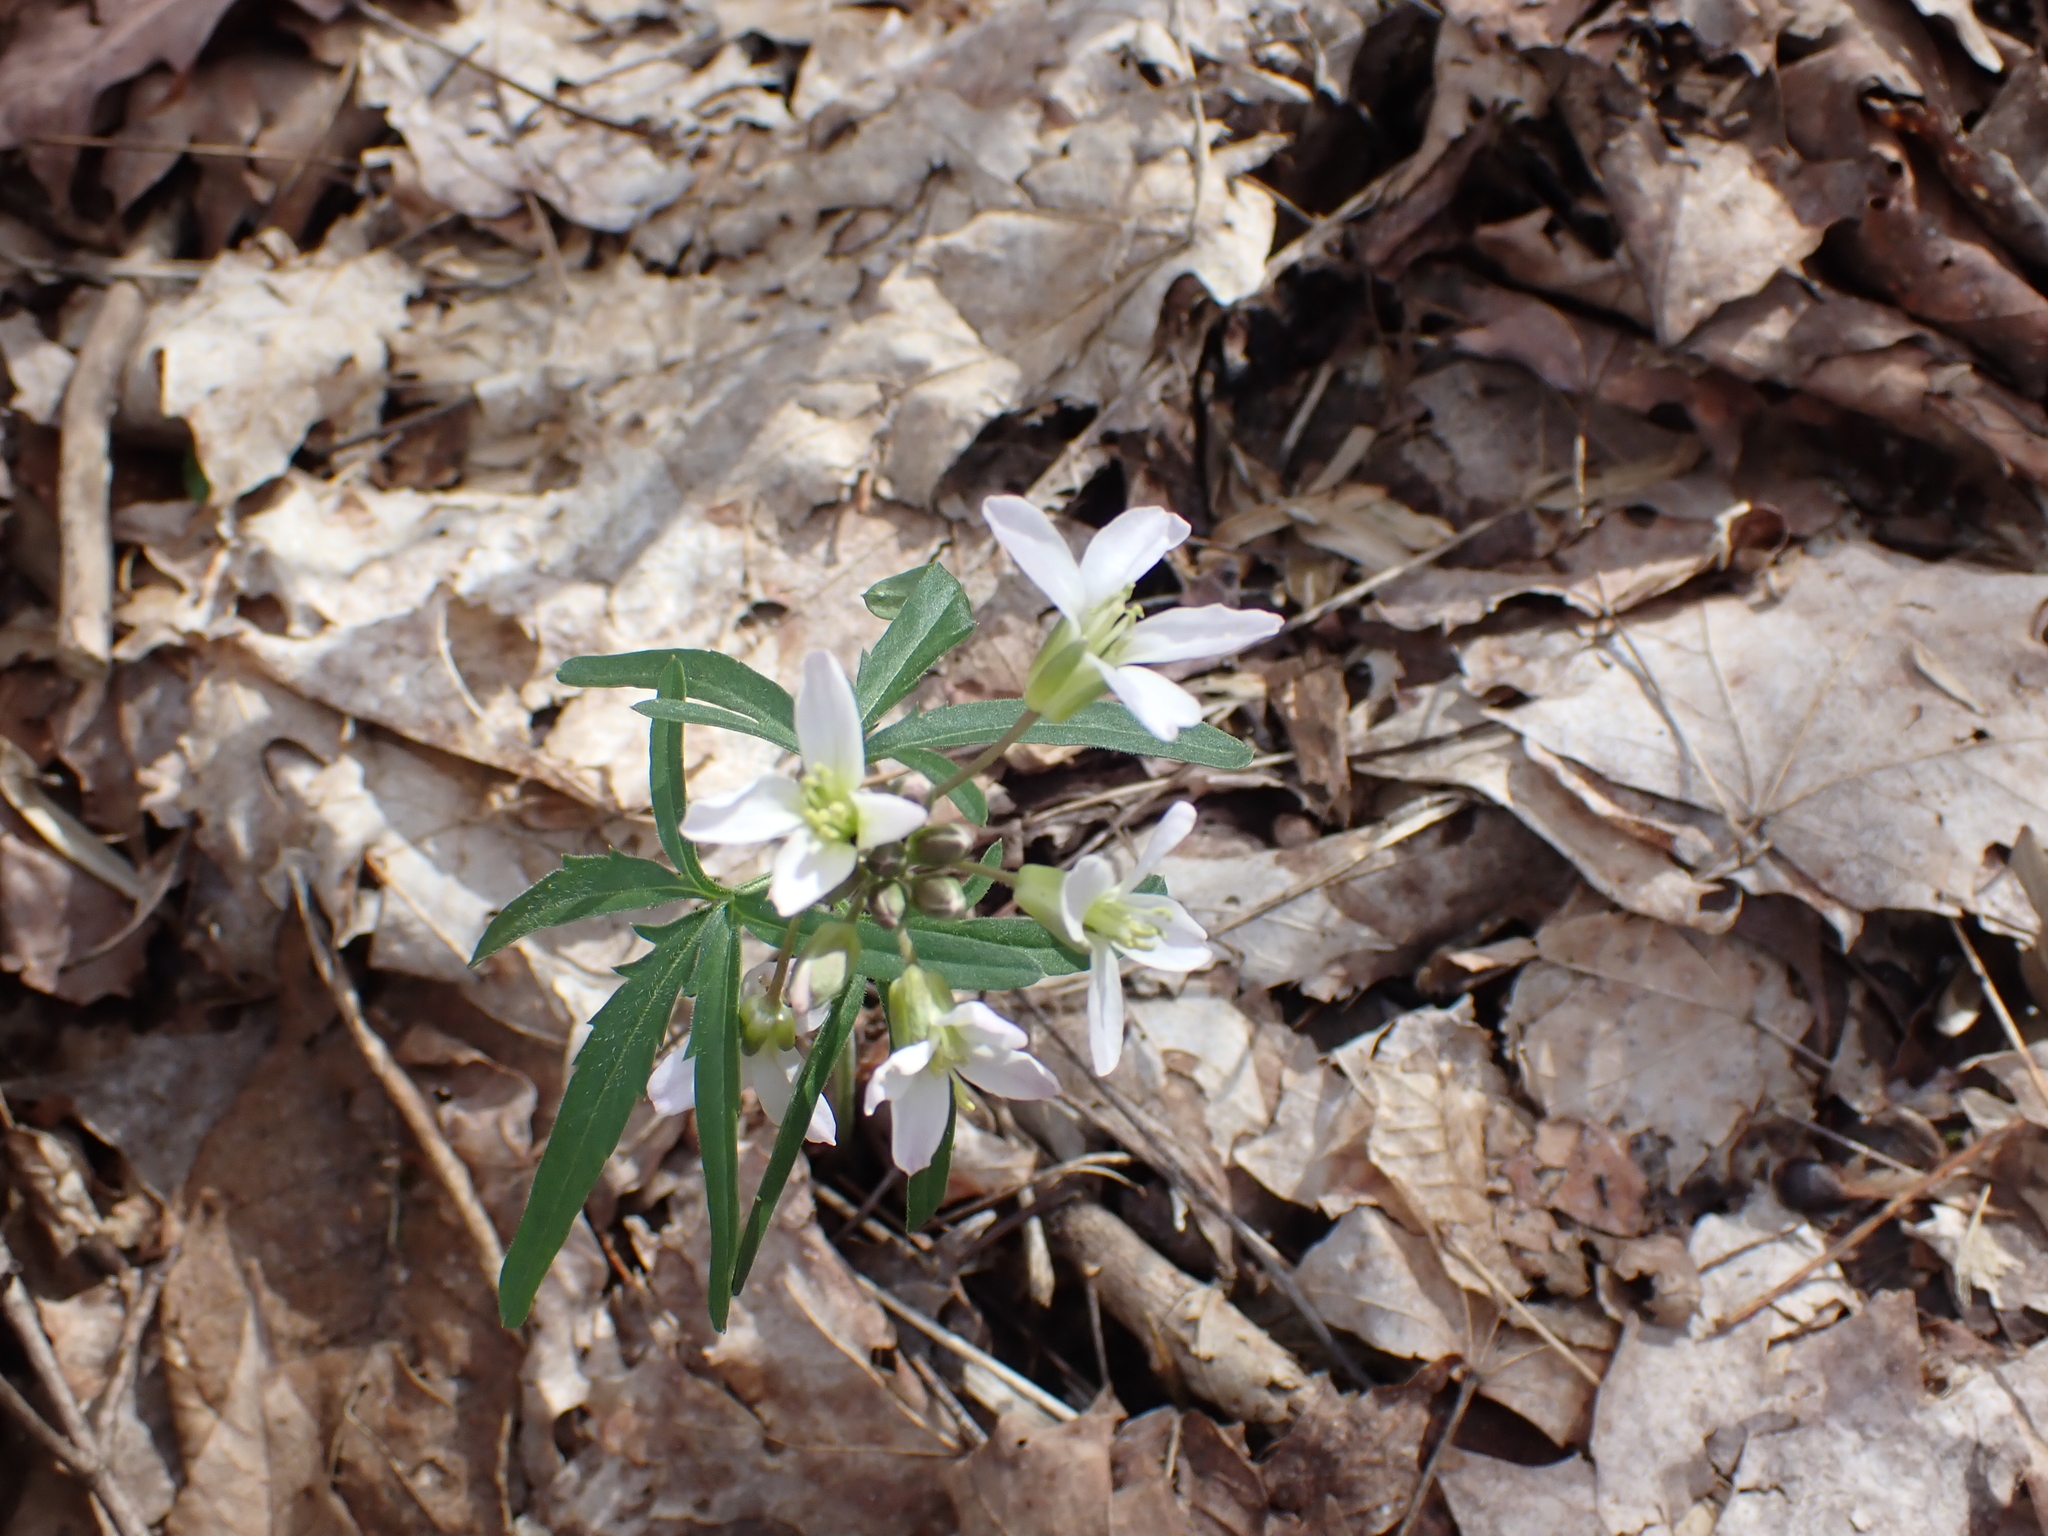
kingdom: Plantae
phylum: Tracheophyta
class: Magnoliopsida
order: Brassicales
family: Brassicaceae
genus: Cardamine
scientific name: Cardamine concatenata
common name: Cut-leaf toothcup
